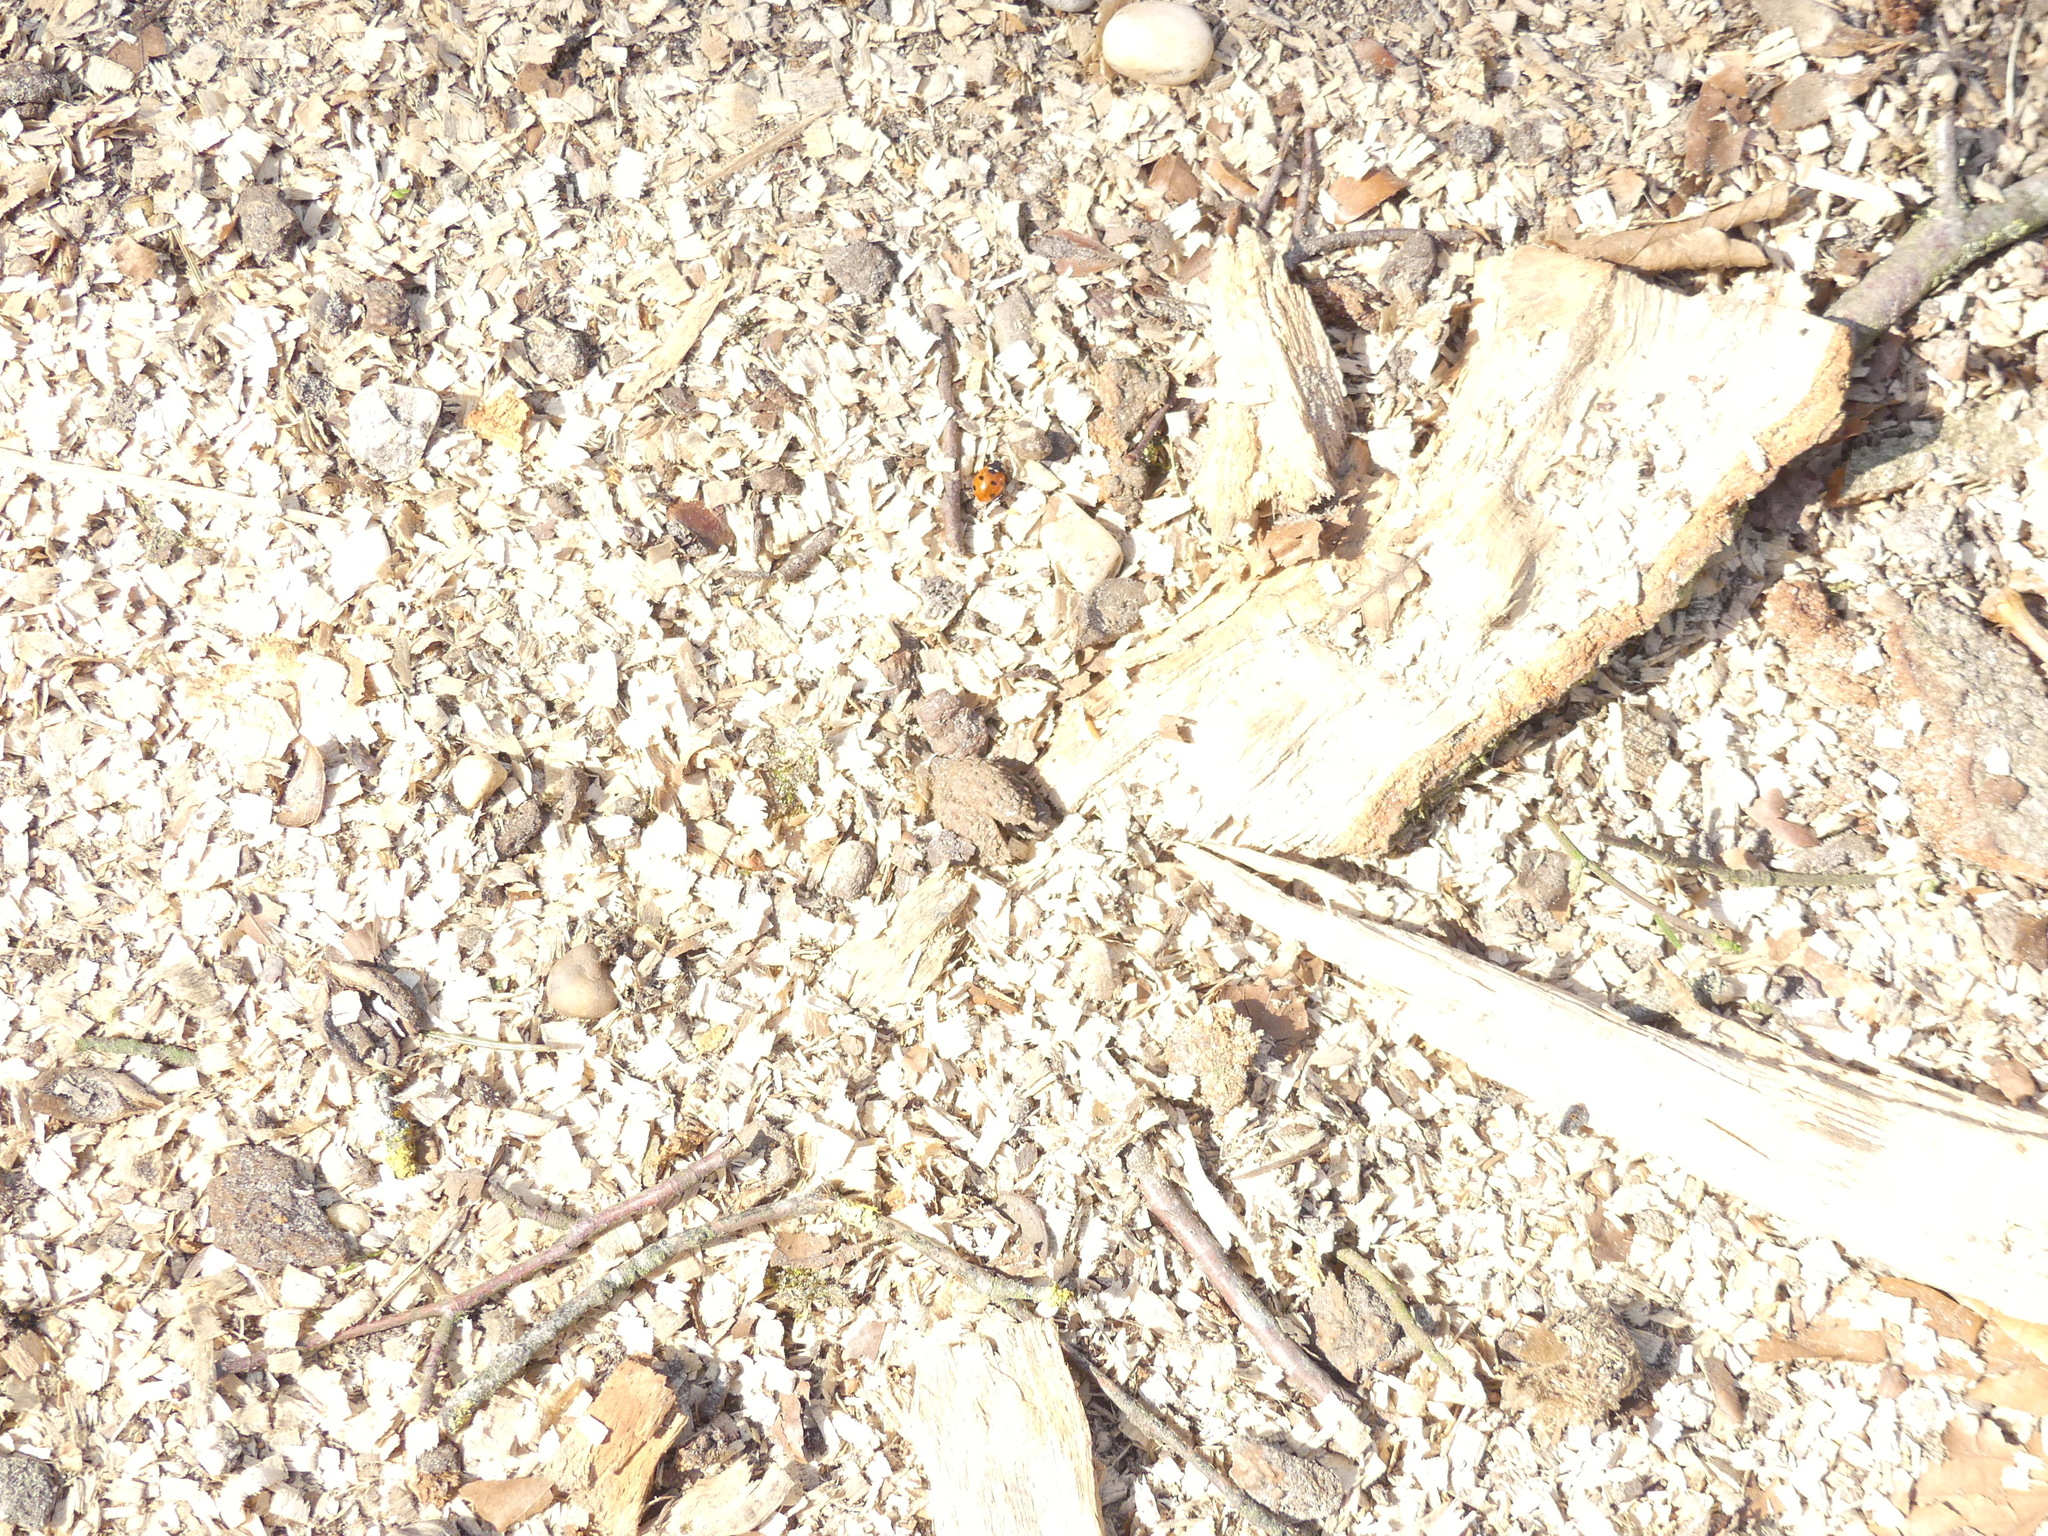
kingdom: Animalia
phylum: Arthropoda
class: Insecta
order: Coleoptera
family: Coccinellidae
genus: Coccinella
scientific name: Coccinella septempunctata
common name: Sevenspotted lady beetle
